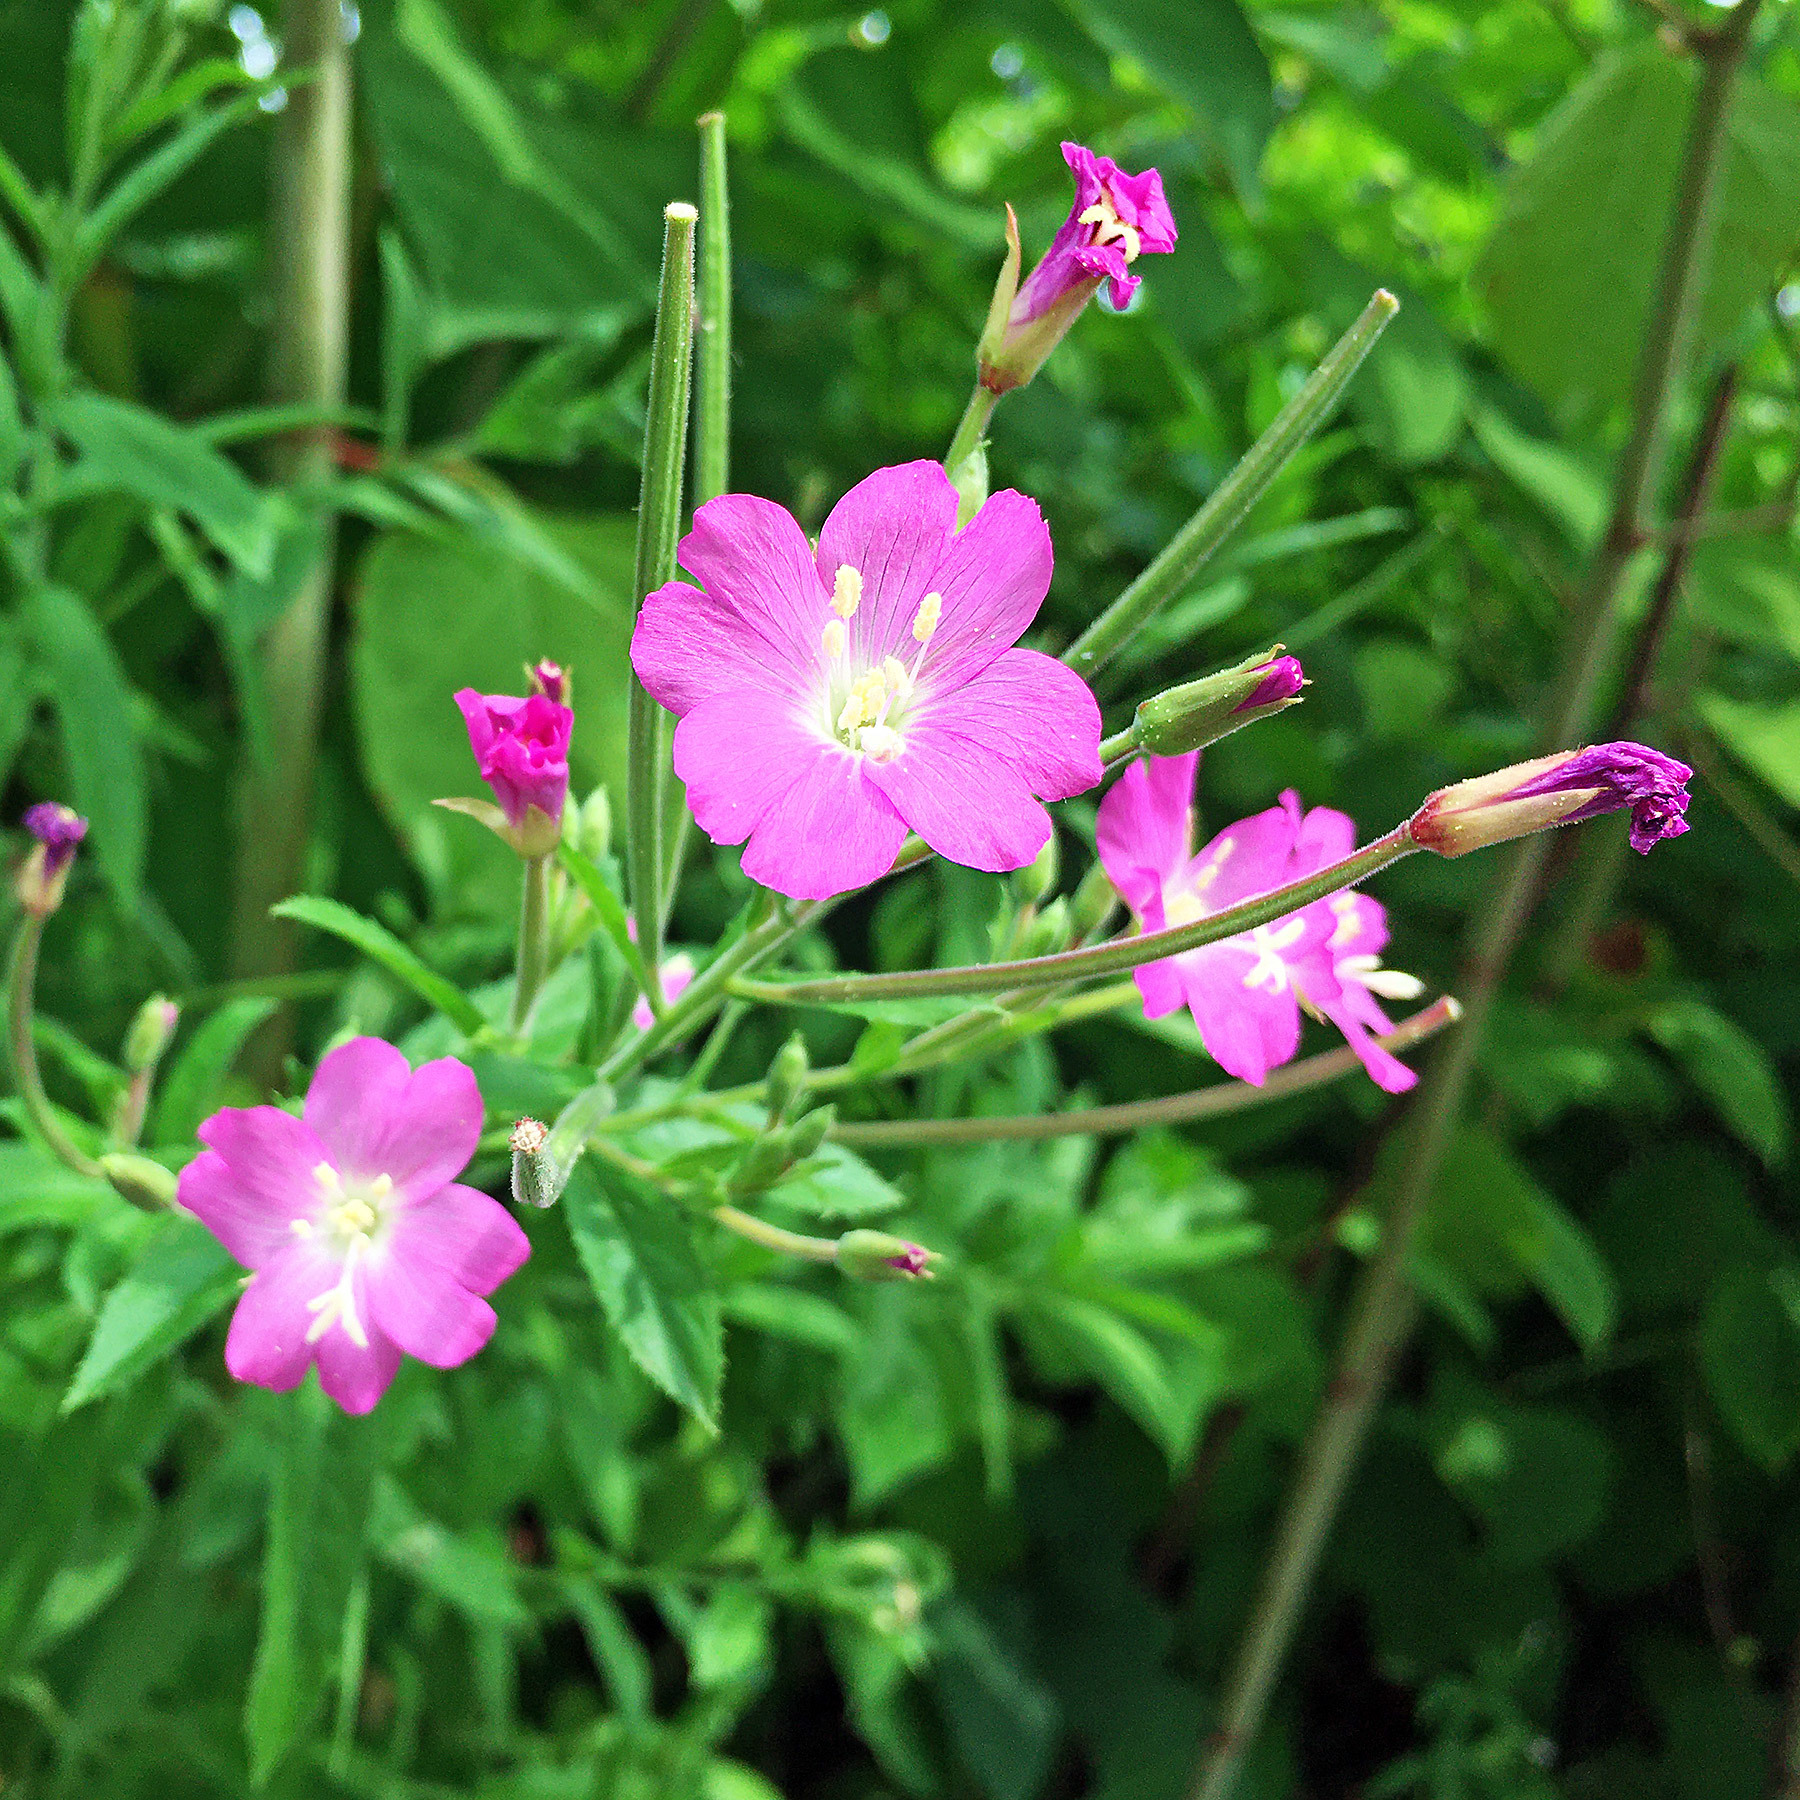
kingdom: Plantae
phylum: Tracheophyta
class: Magnoliopsida
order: Myrtales
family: Onagraceae
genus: Epilobium
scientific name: Epilobium hirsutum
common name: Great willowherb
